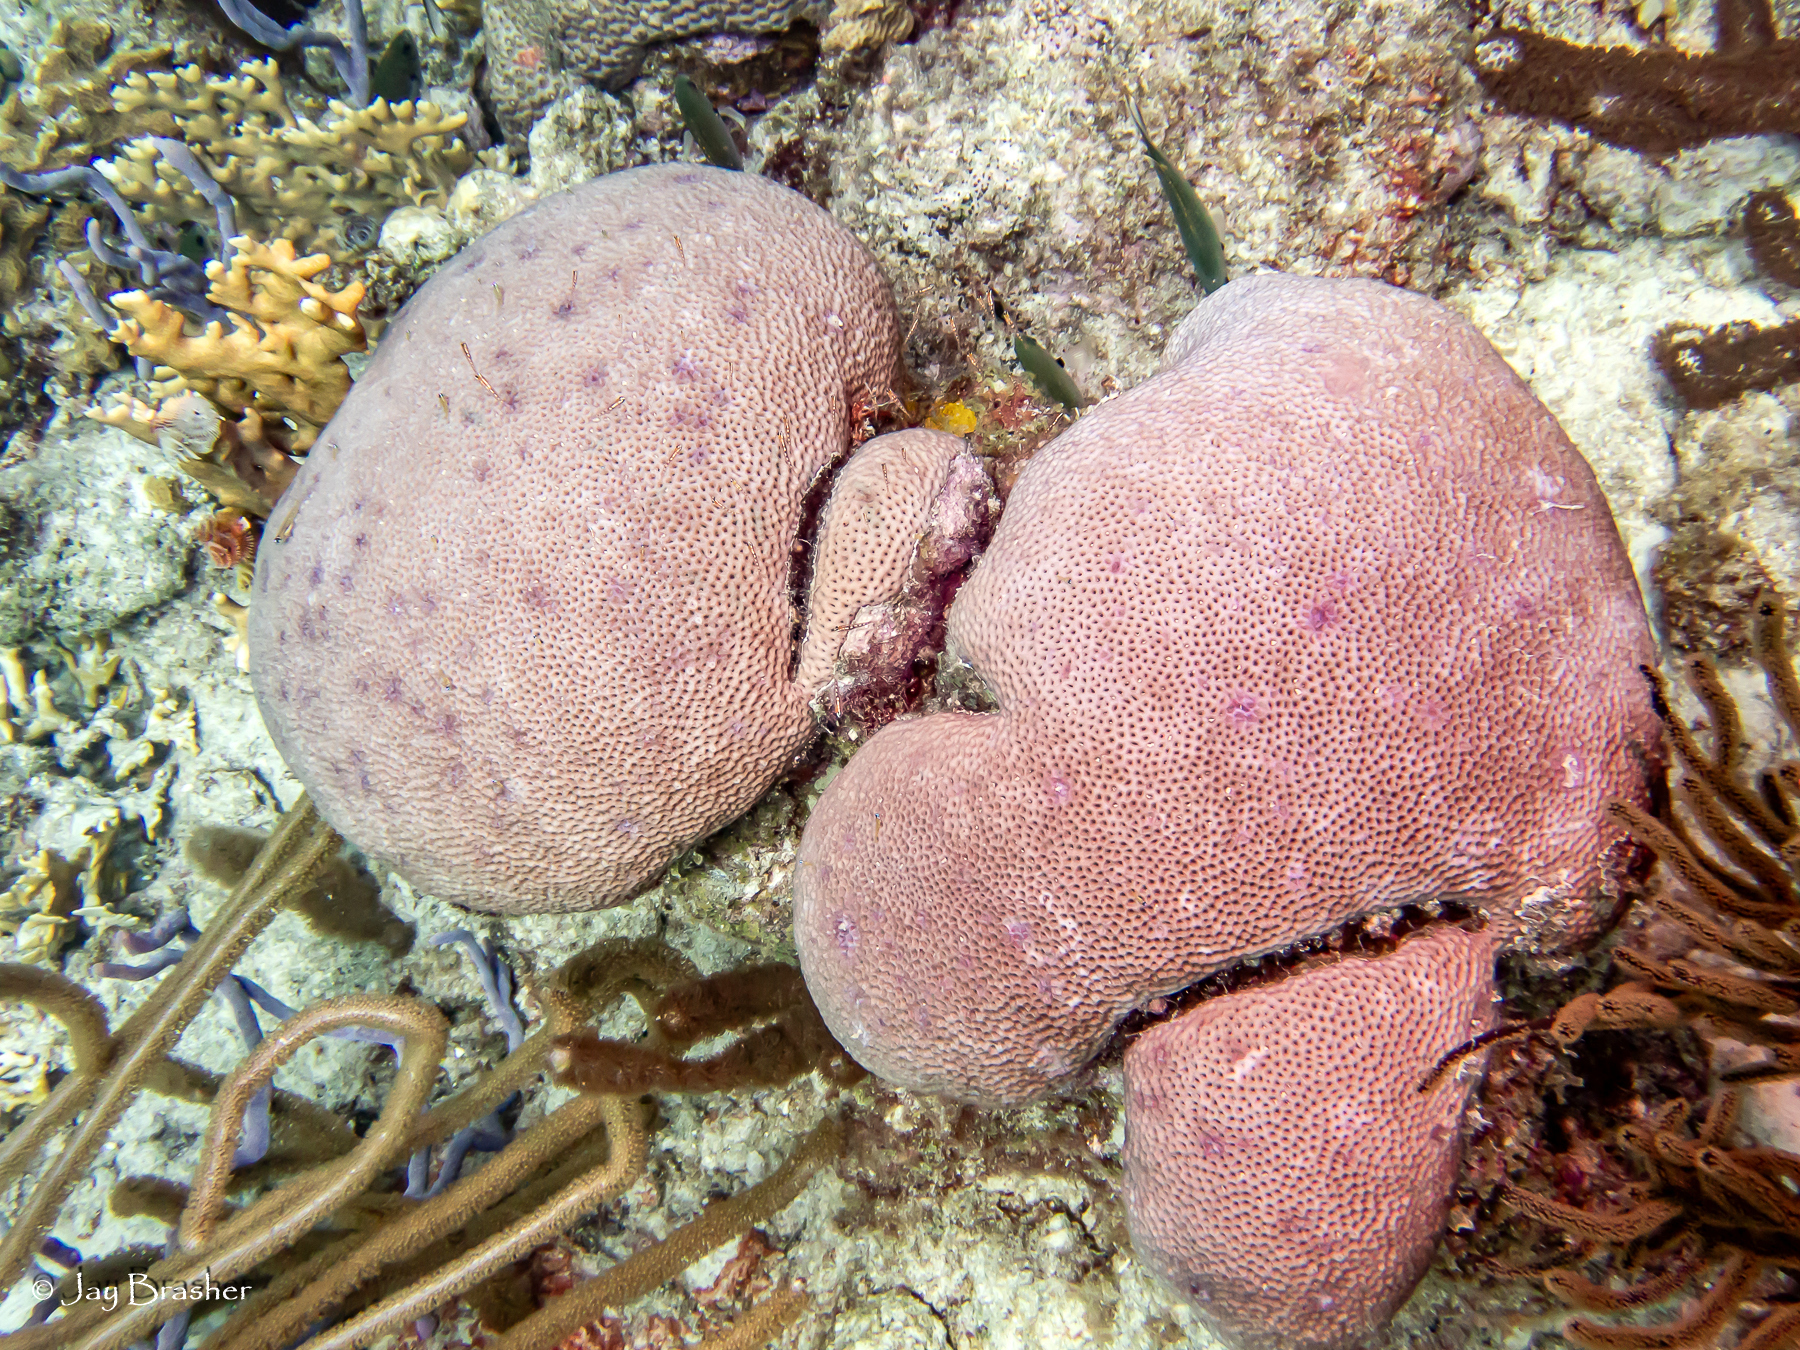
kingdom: Animalia
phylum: Cnidaria
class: Anthozoa
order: Scleractinia
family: Rhizangiidae
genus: Siderastrea
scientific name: Siderastrea siderea
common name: Massive starlet coral
